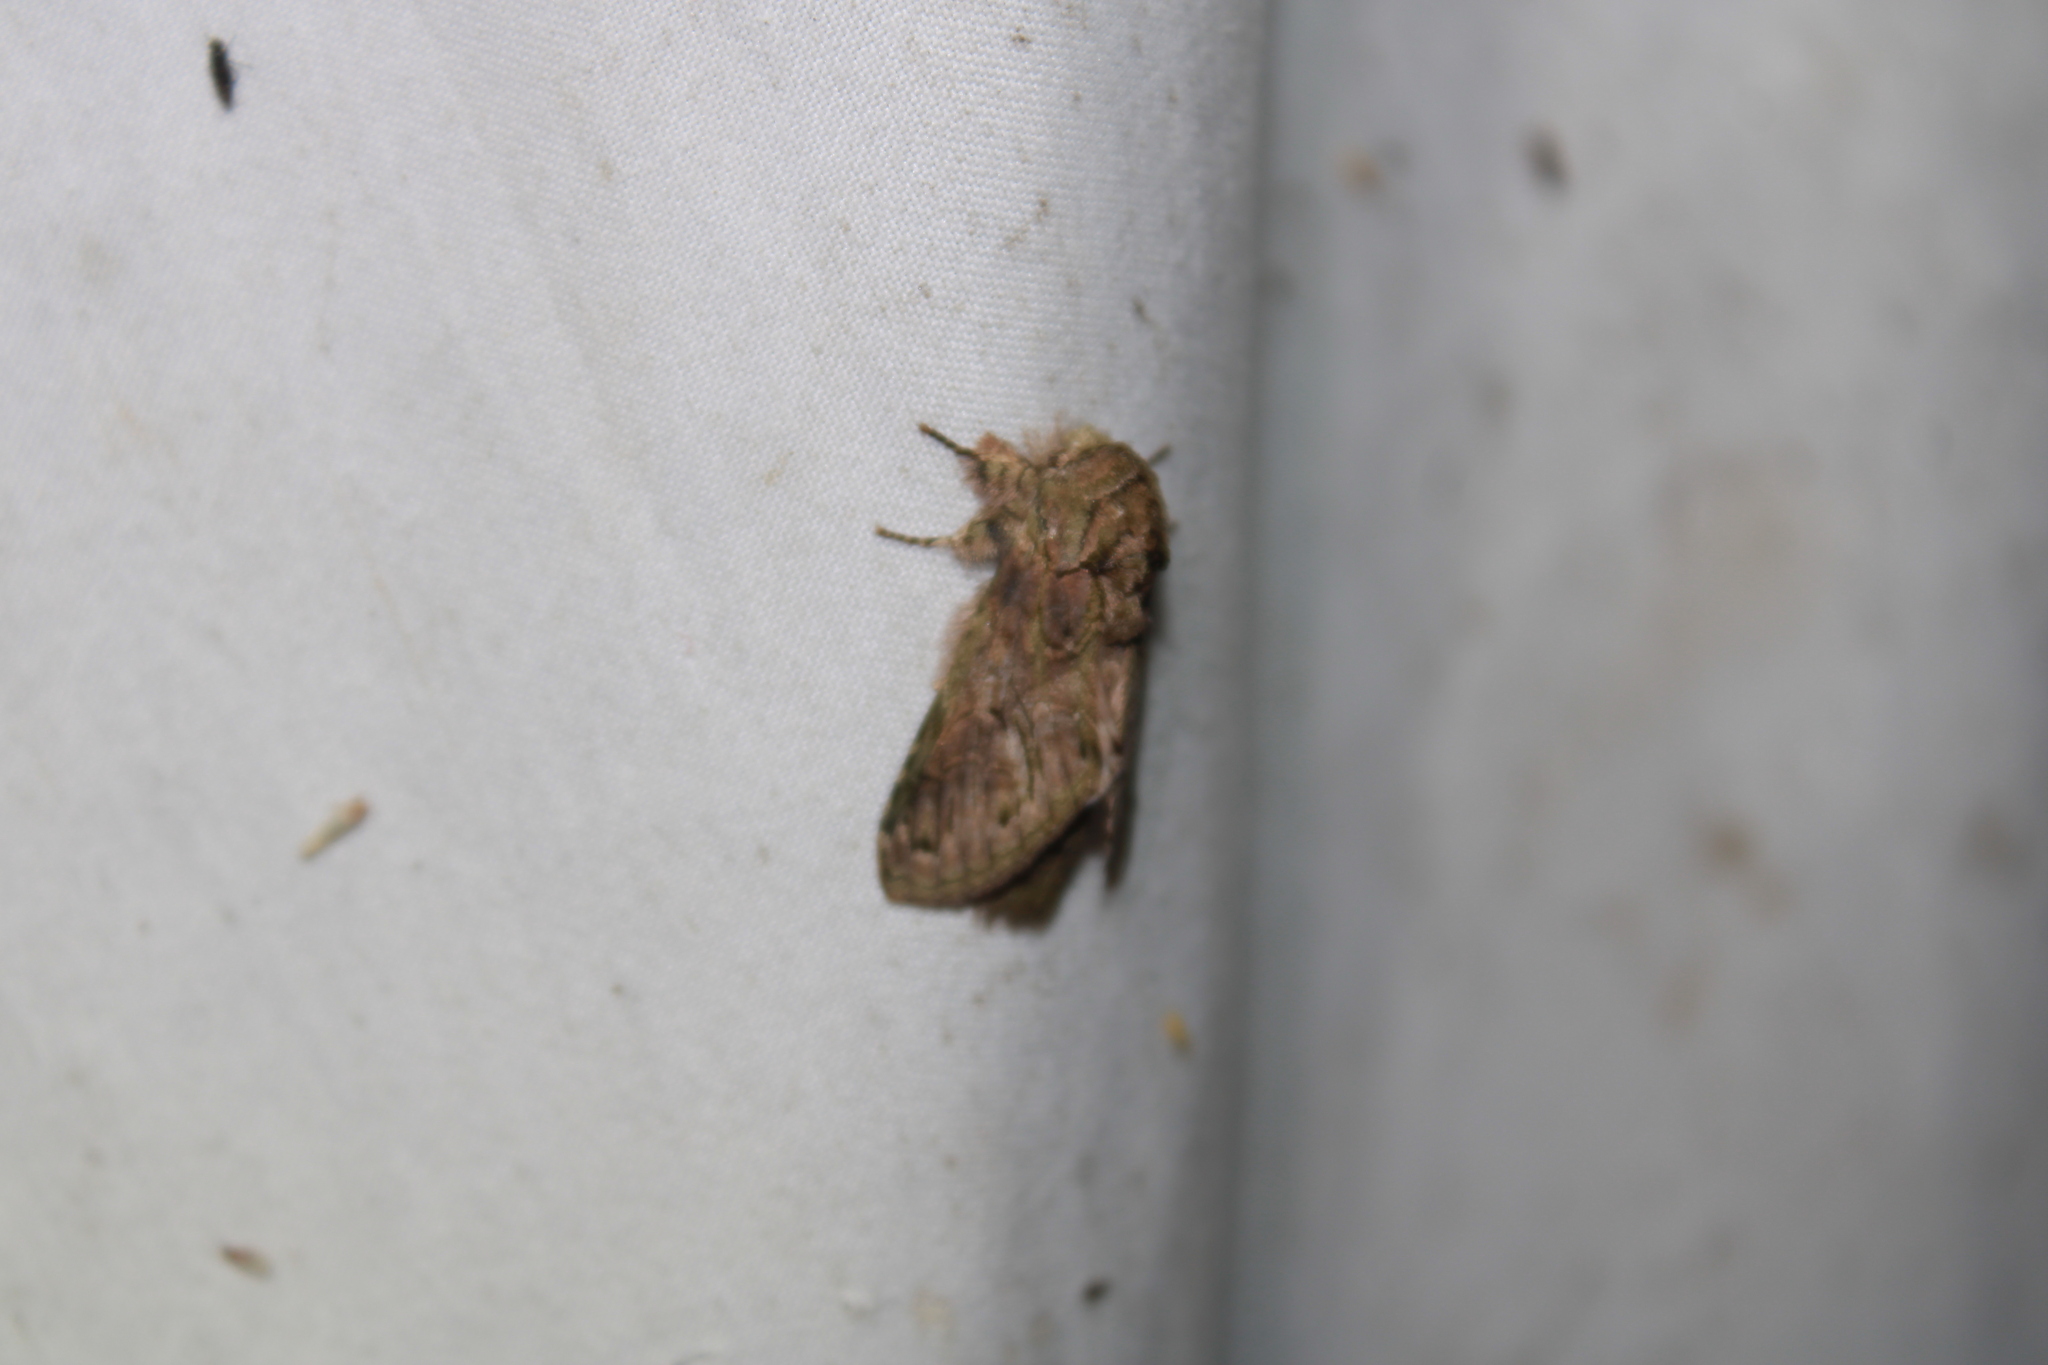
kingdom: Animalia
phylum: Arthropoda
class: Insecta
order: Lepidoptera
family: Notodontidae
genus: Disphragis
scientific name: Disphragis
